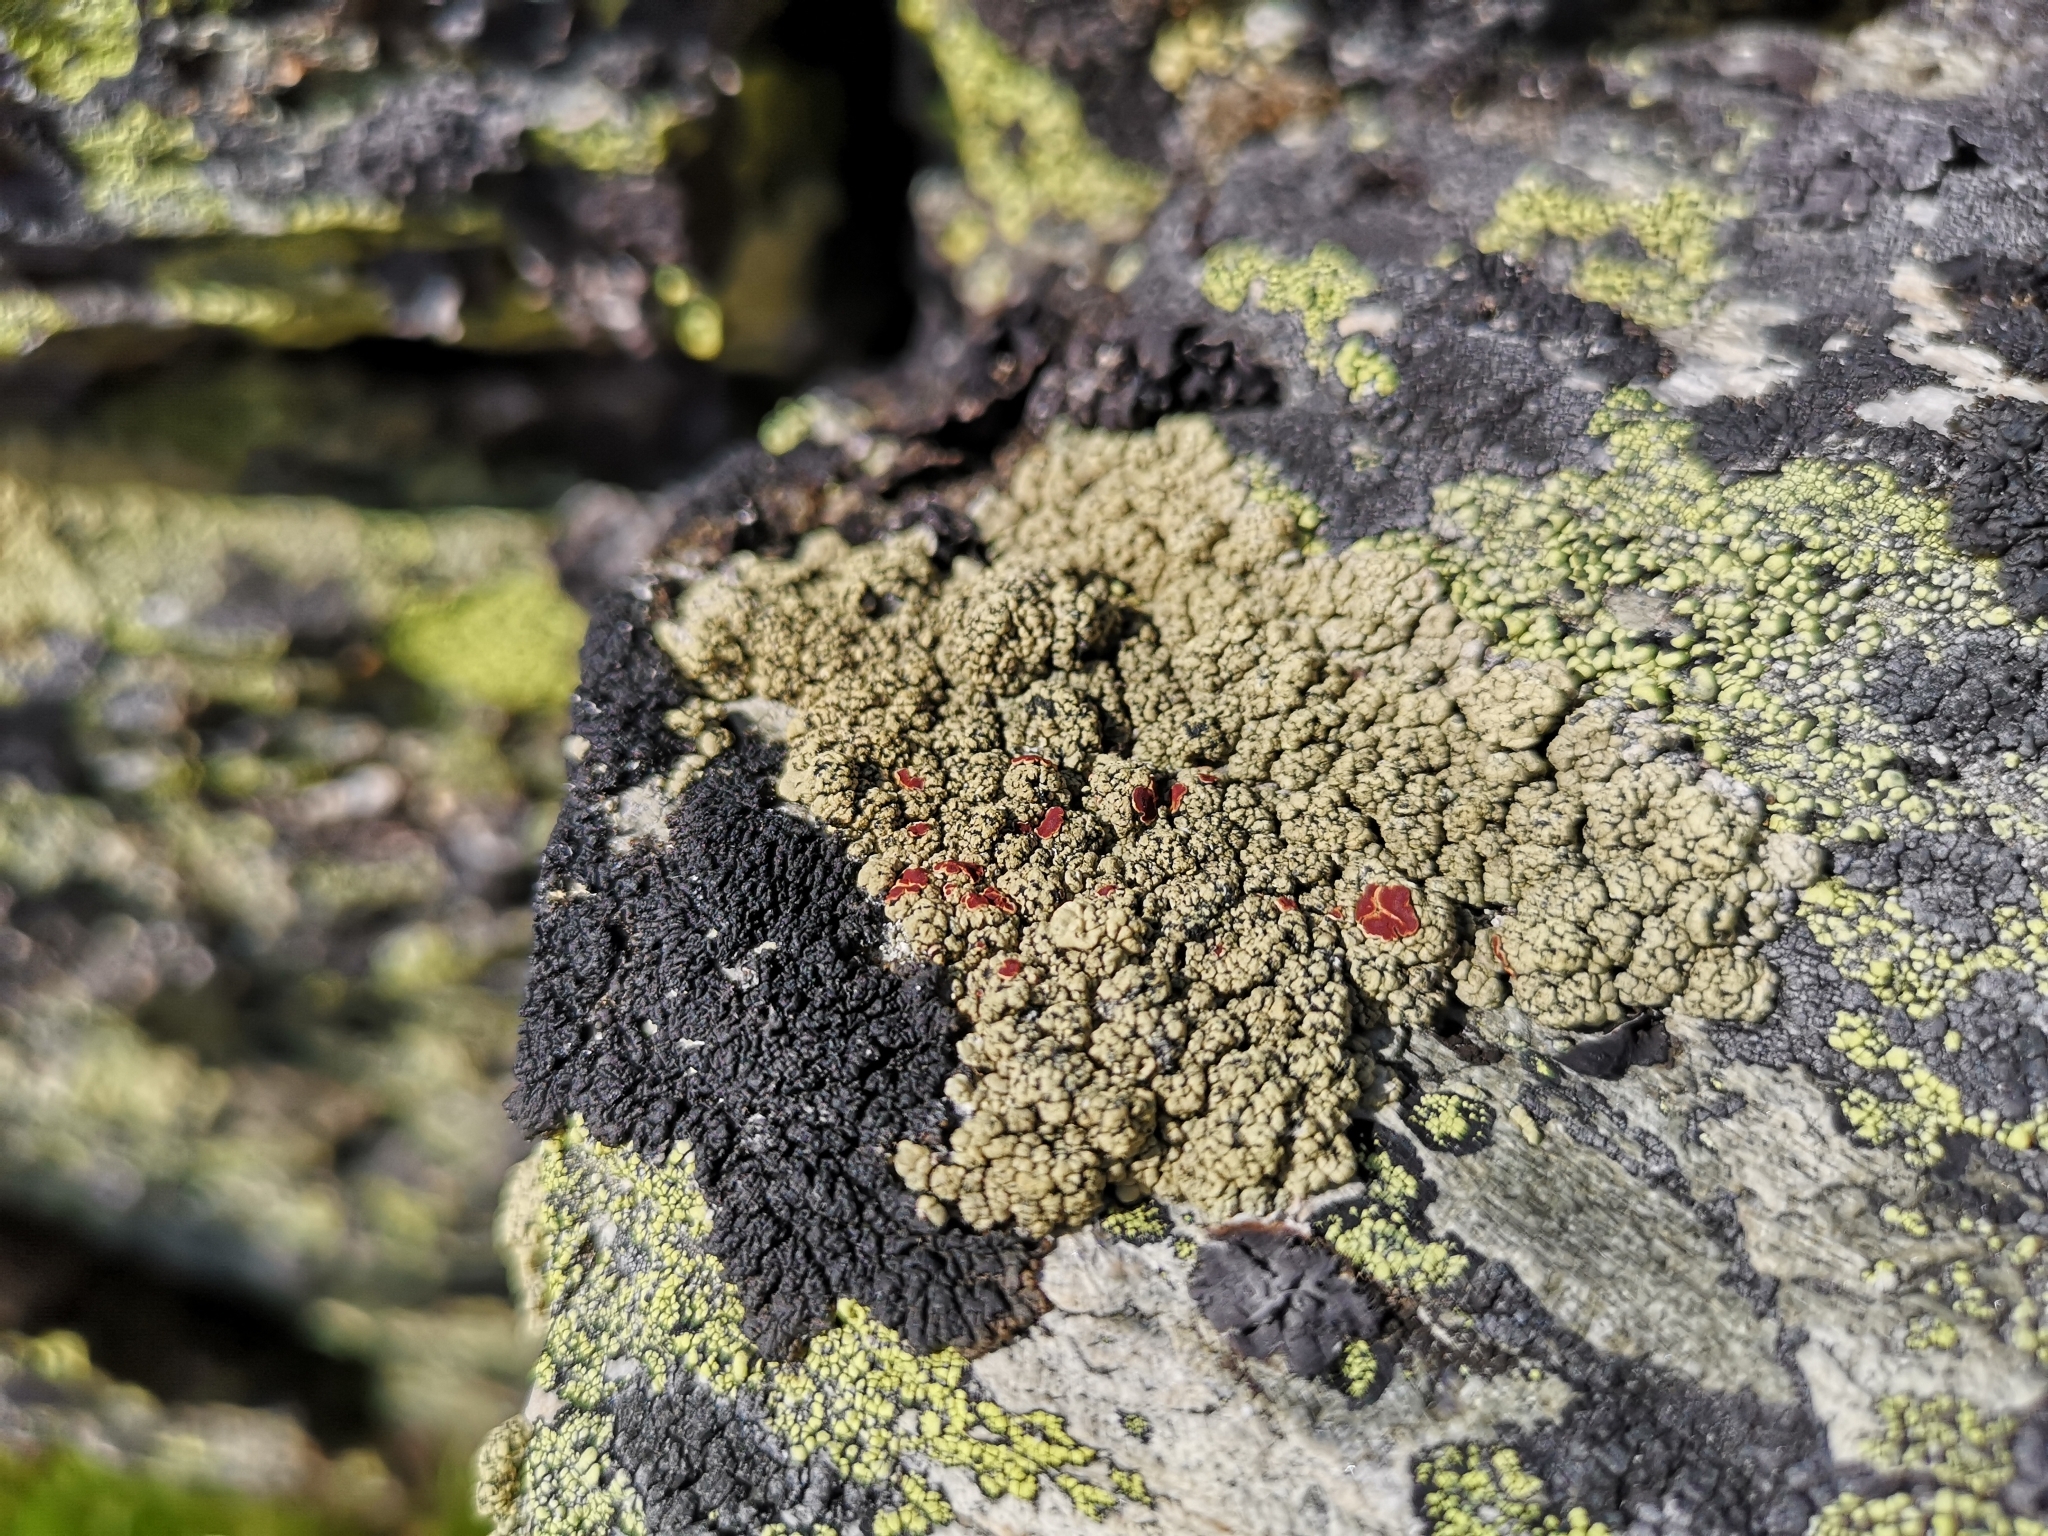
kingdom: Fungi
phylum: Ascomycota
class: Lecanoromycetes
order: Umbilicariales
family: Ophioparmaceae
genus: Ophioparma
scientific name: Ophioparma ventosa
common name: Blood-spot
